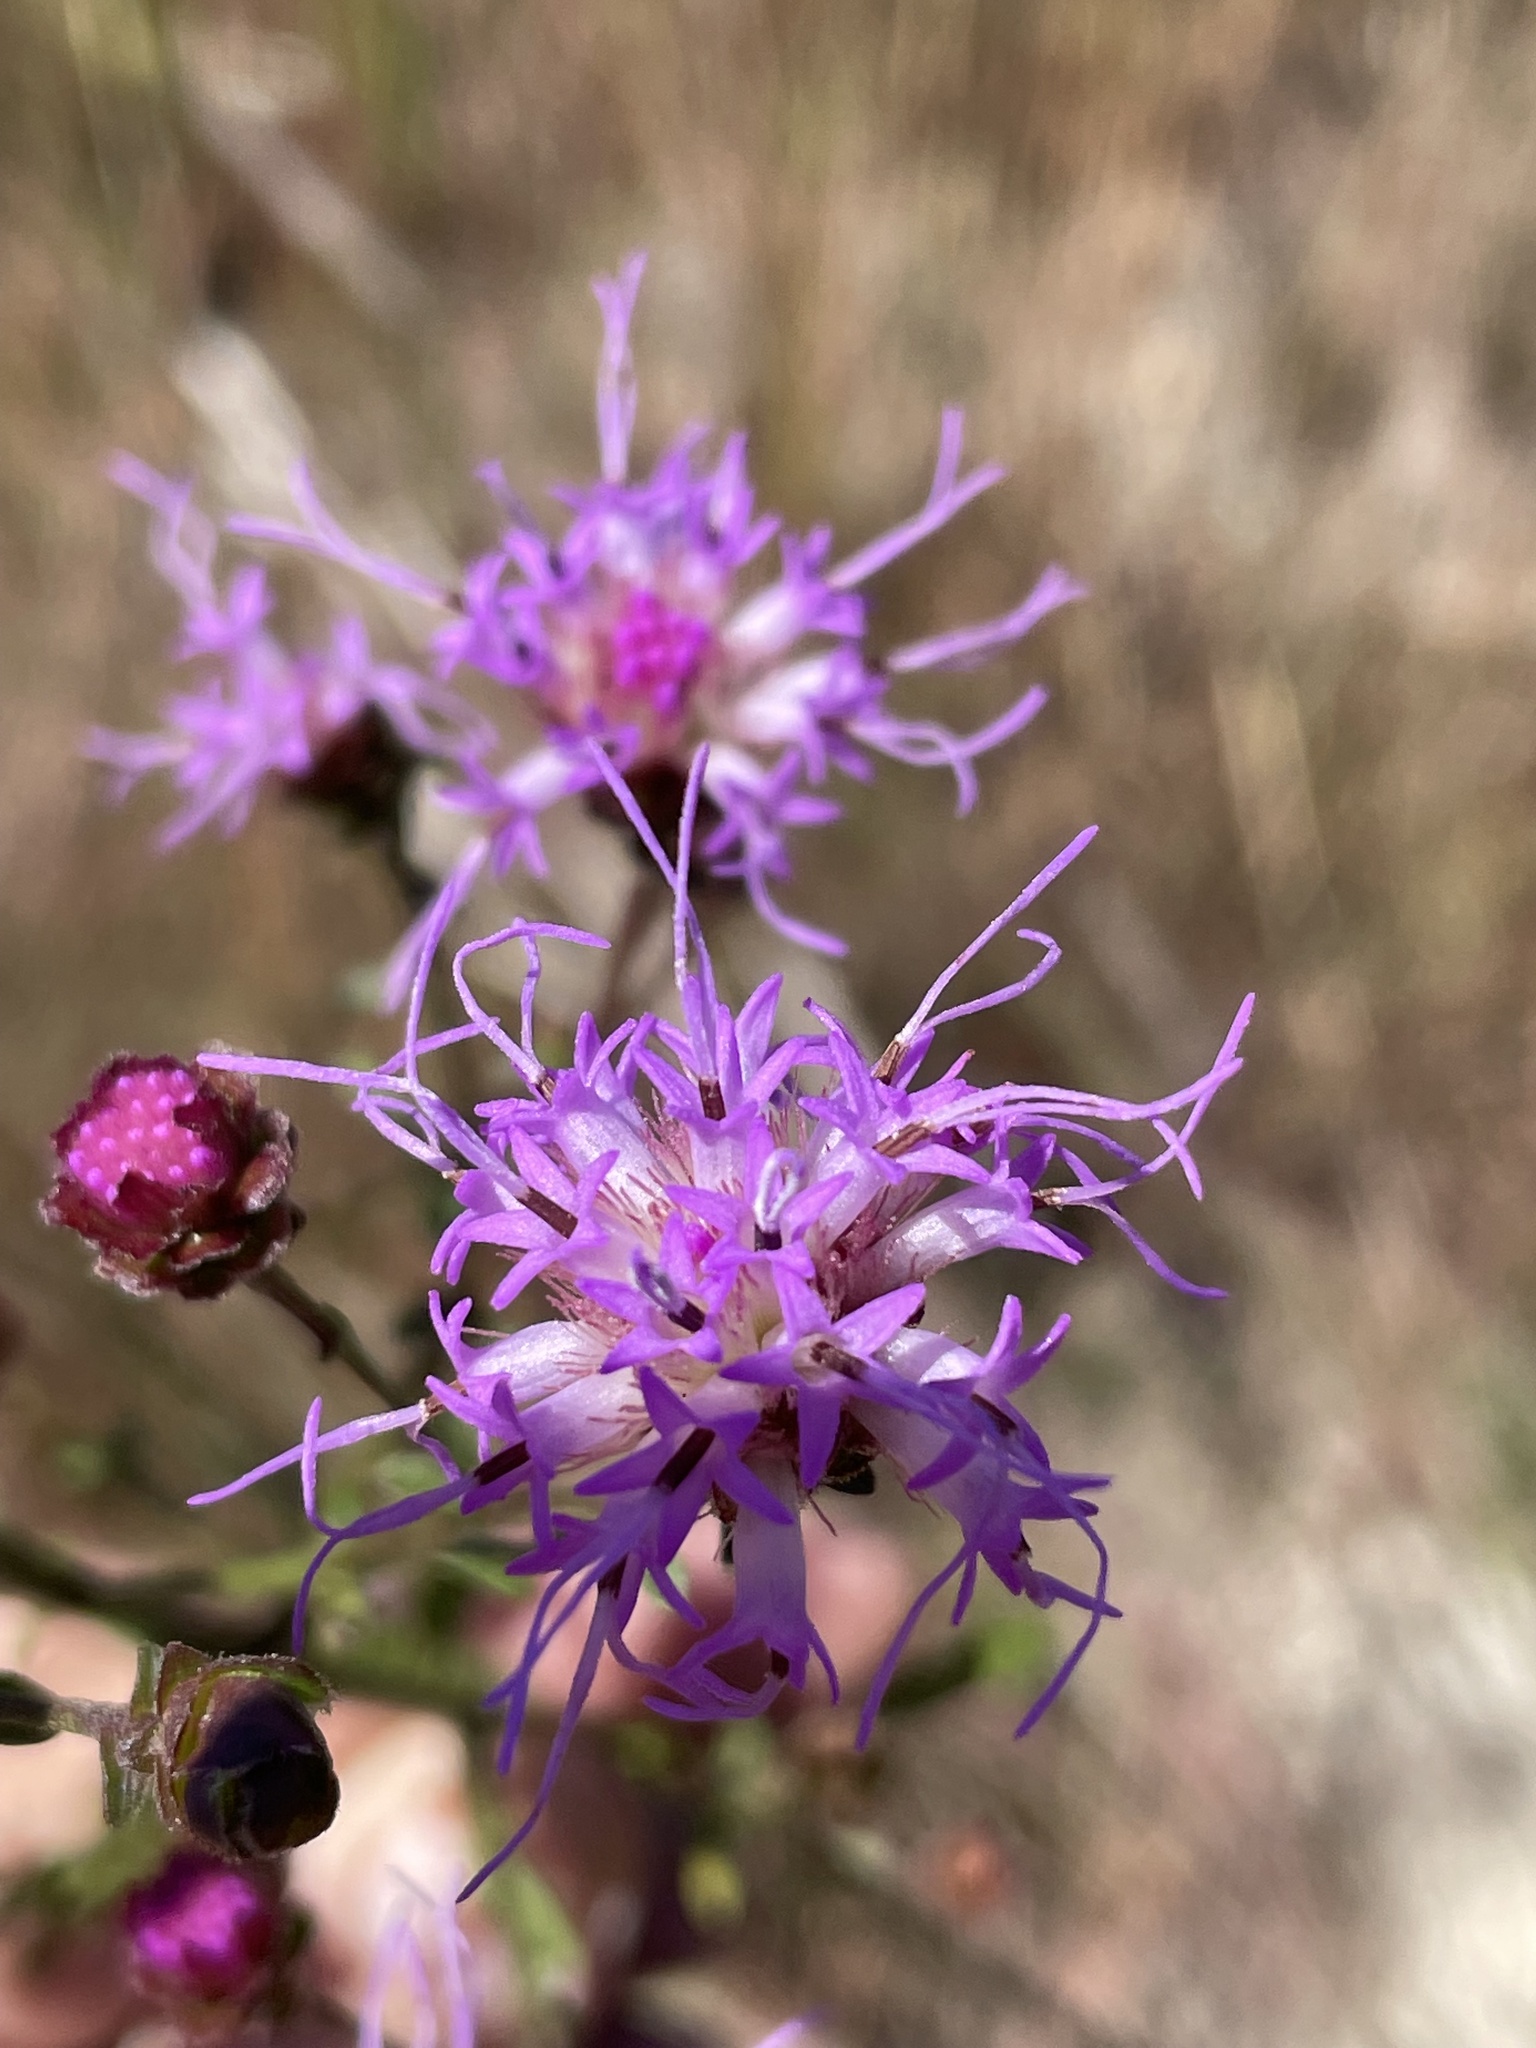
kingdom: Plantae
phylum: Tracheophyta
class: Magnoliopsida
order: Asterales
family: Asteraceae
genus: Carphephorus
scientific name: Carphephorus bellidifolius
